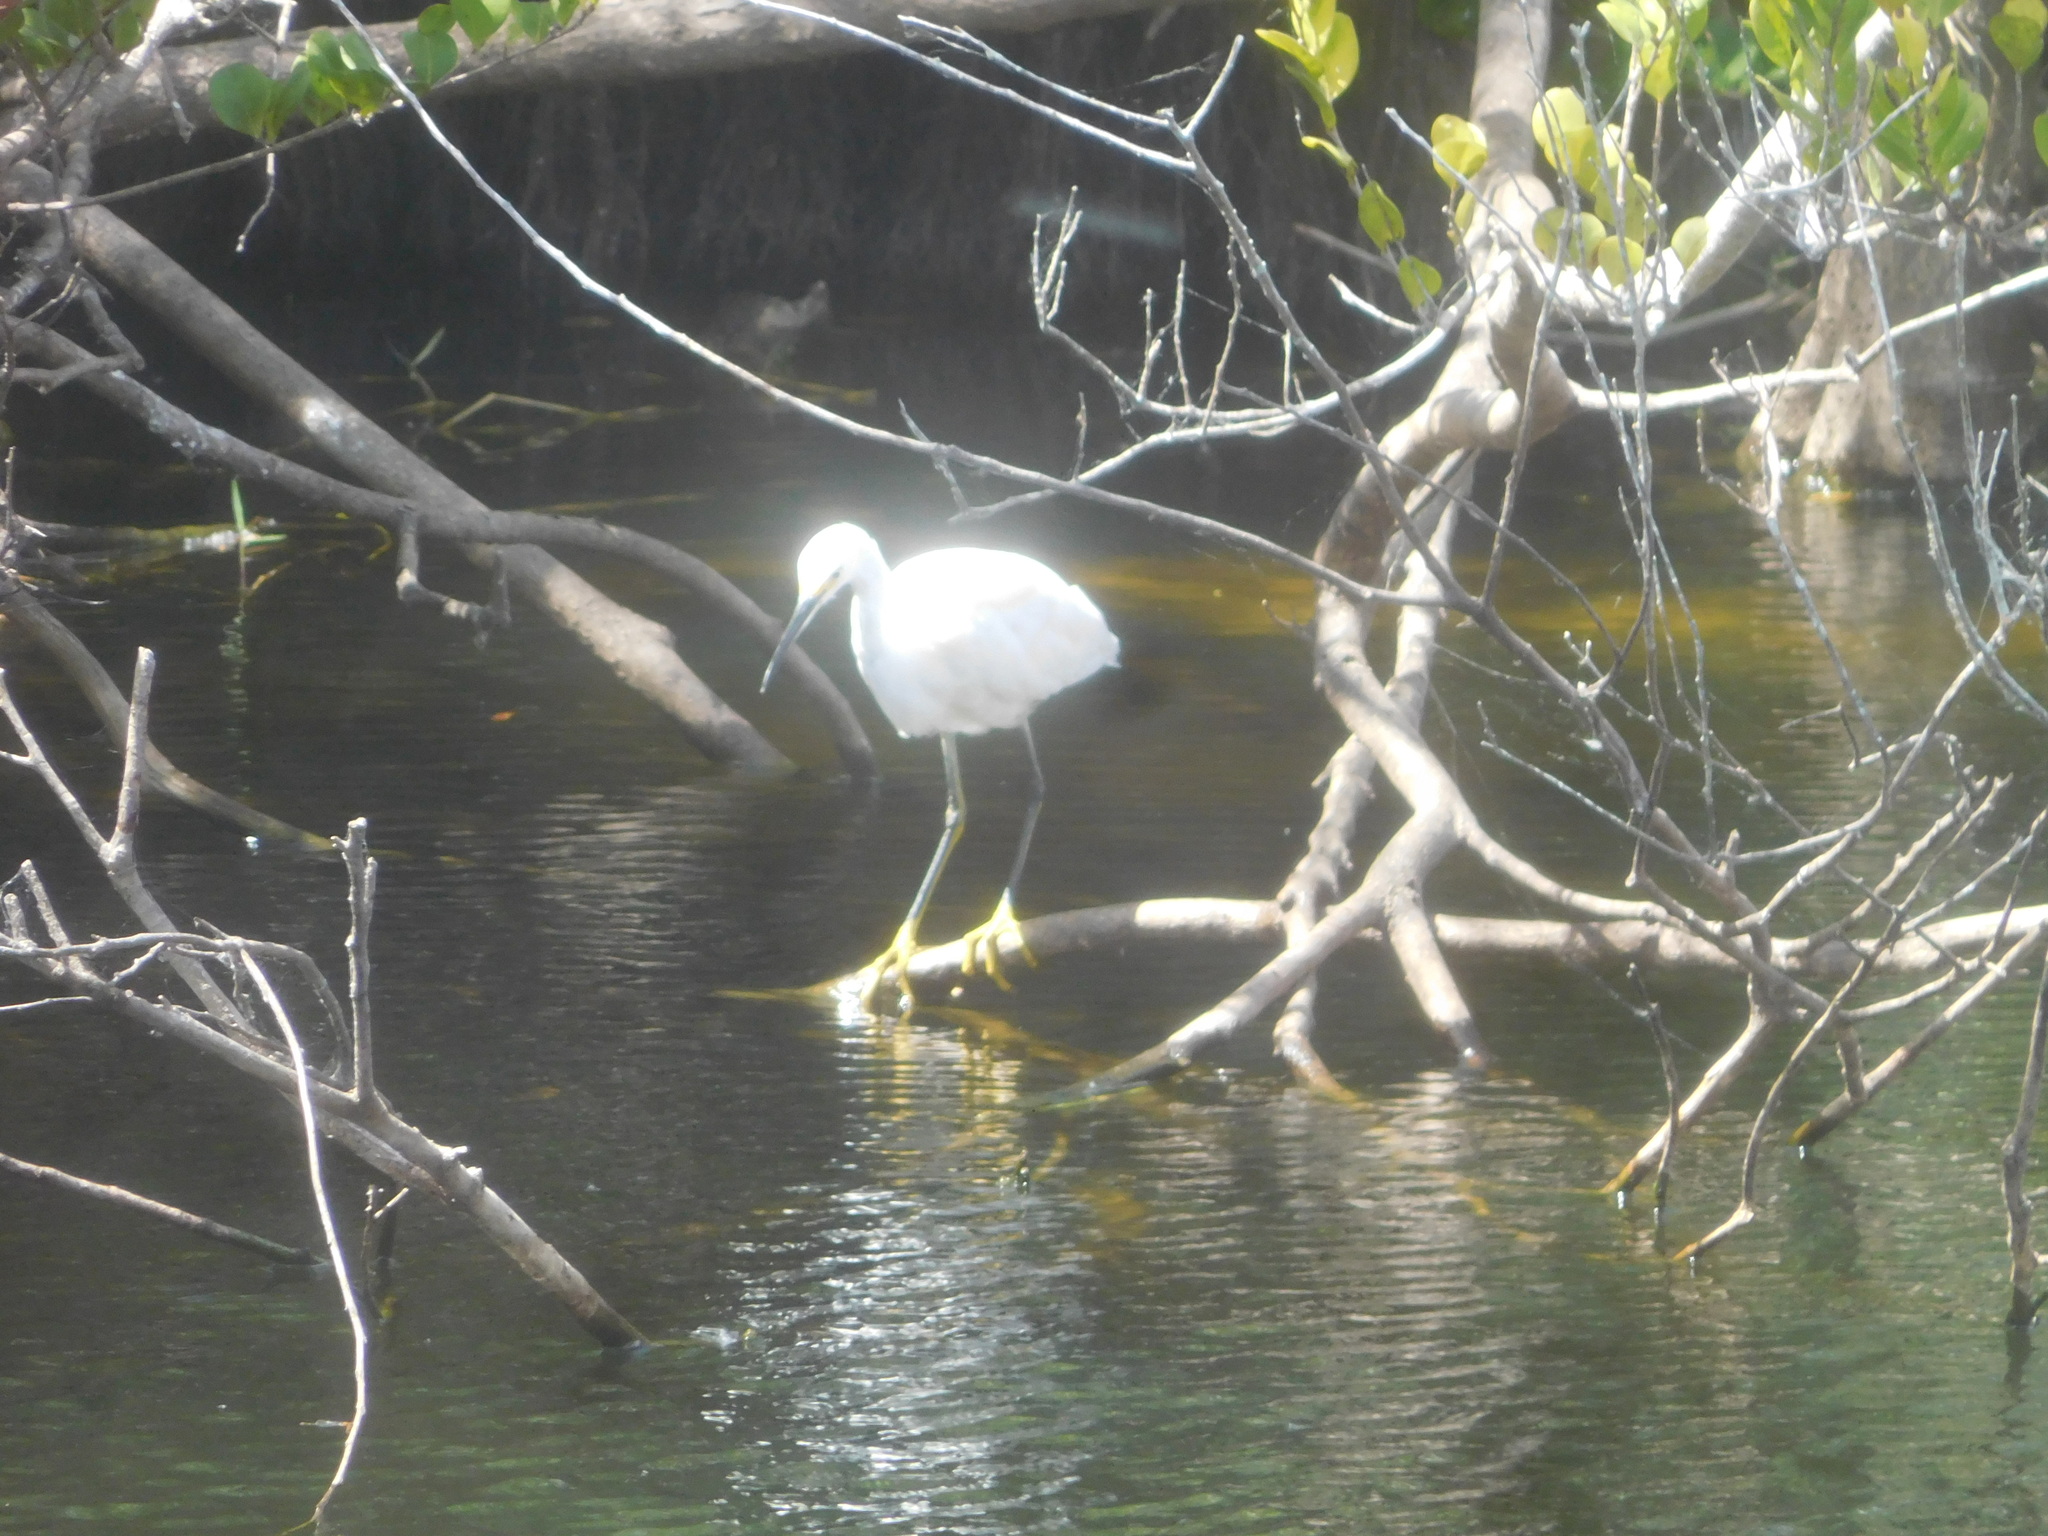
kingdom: Animalia
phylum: Chordata
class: Aves
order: Pelecaniformes
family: Ardeidae
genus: Egretta
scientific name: Egretta thula
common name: Snowy egret
